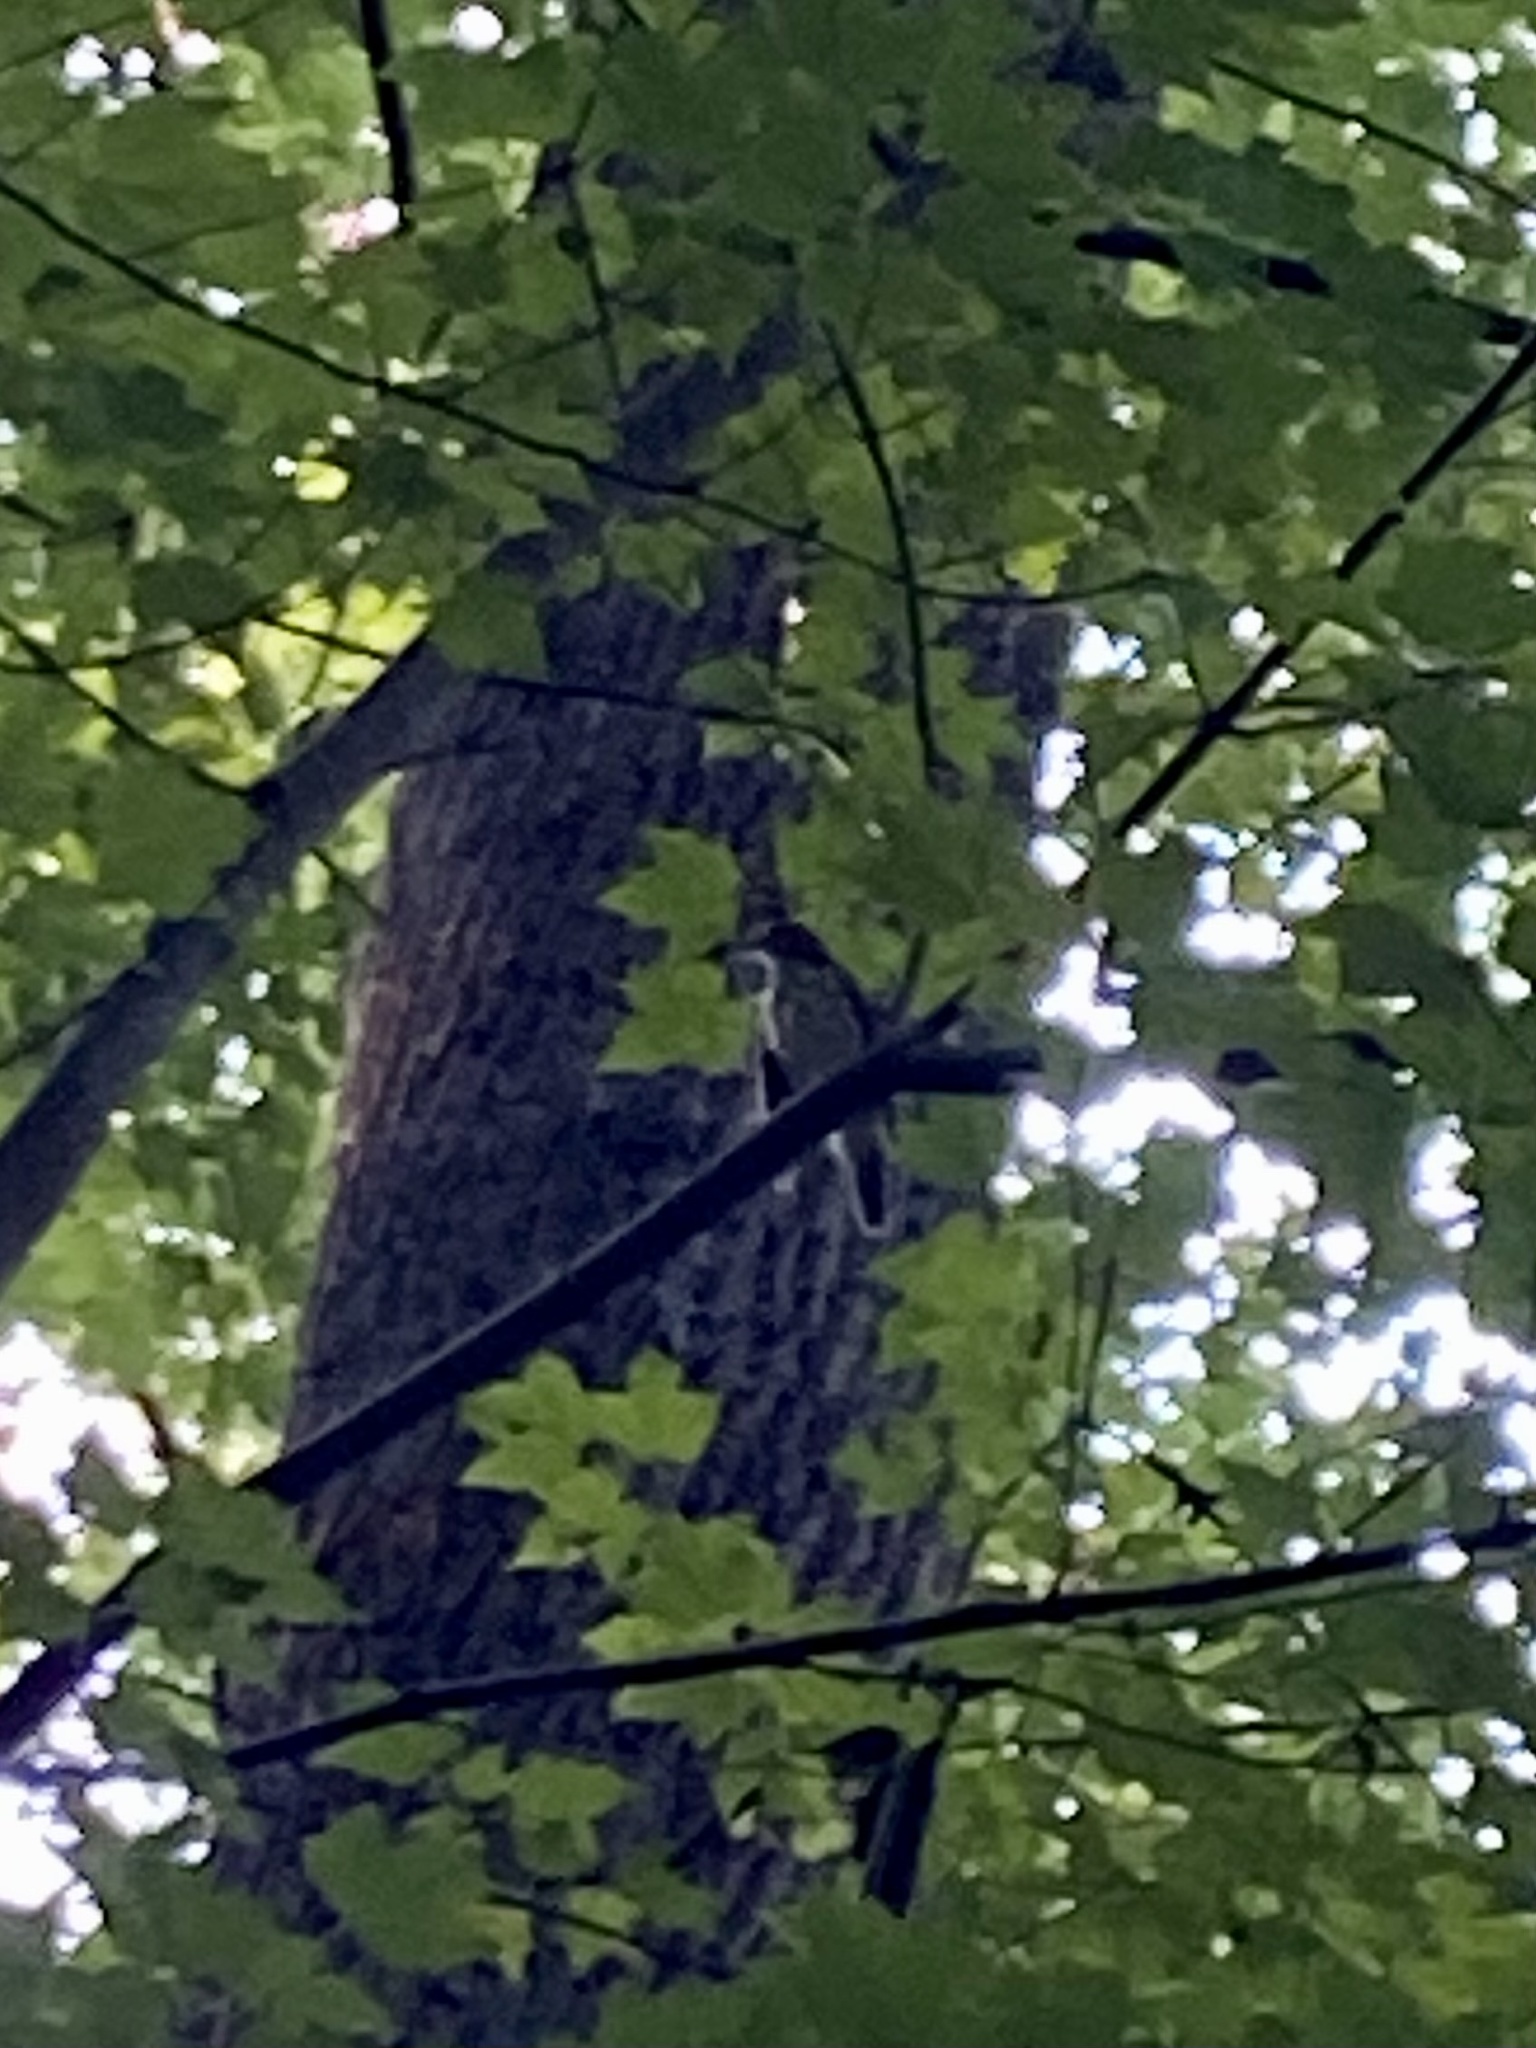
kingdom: Animalia
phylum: Chordata
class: Aves
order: Passeriformes
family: Turdidae
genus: Hylocichla
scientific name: Hylocichla mustelina
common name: Wood thrush
